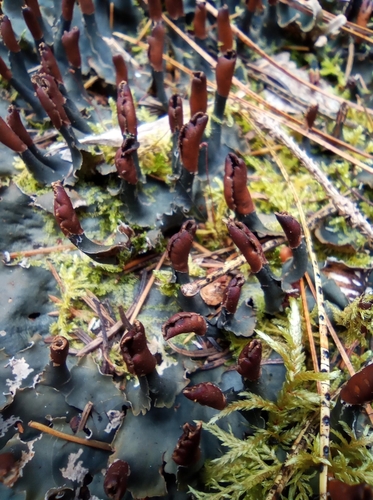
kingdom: Fungi
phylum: Ascomycota
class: Lecanoromycetes
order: Peltigerales
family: Peltigeraceae
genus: Peltigera
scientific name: Peltigera polydactylon
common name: Many-fruited pelt lichen
